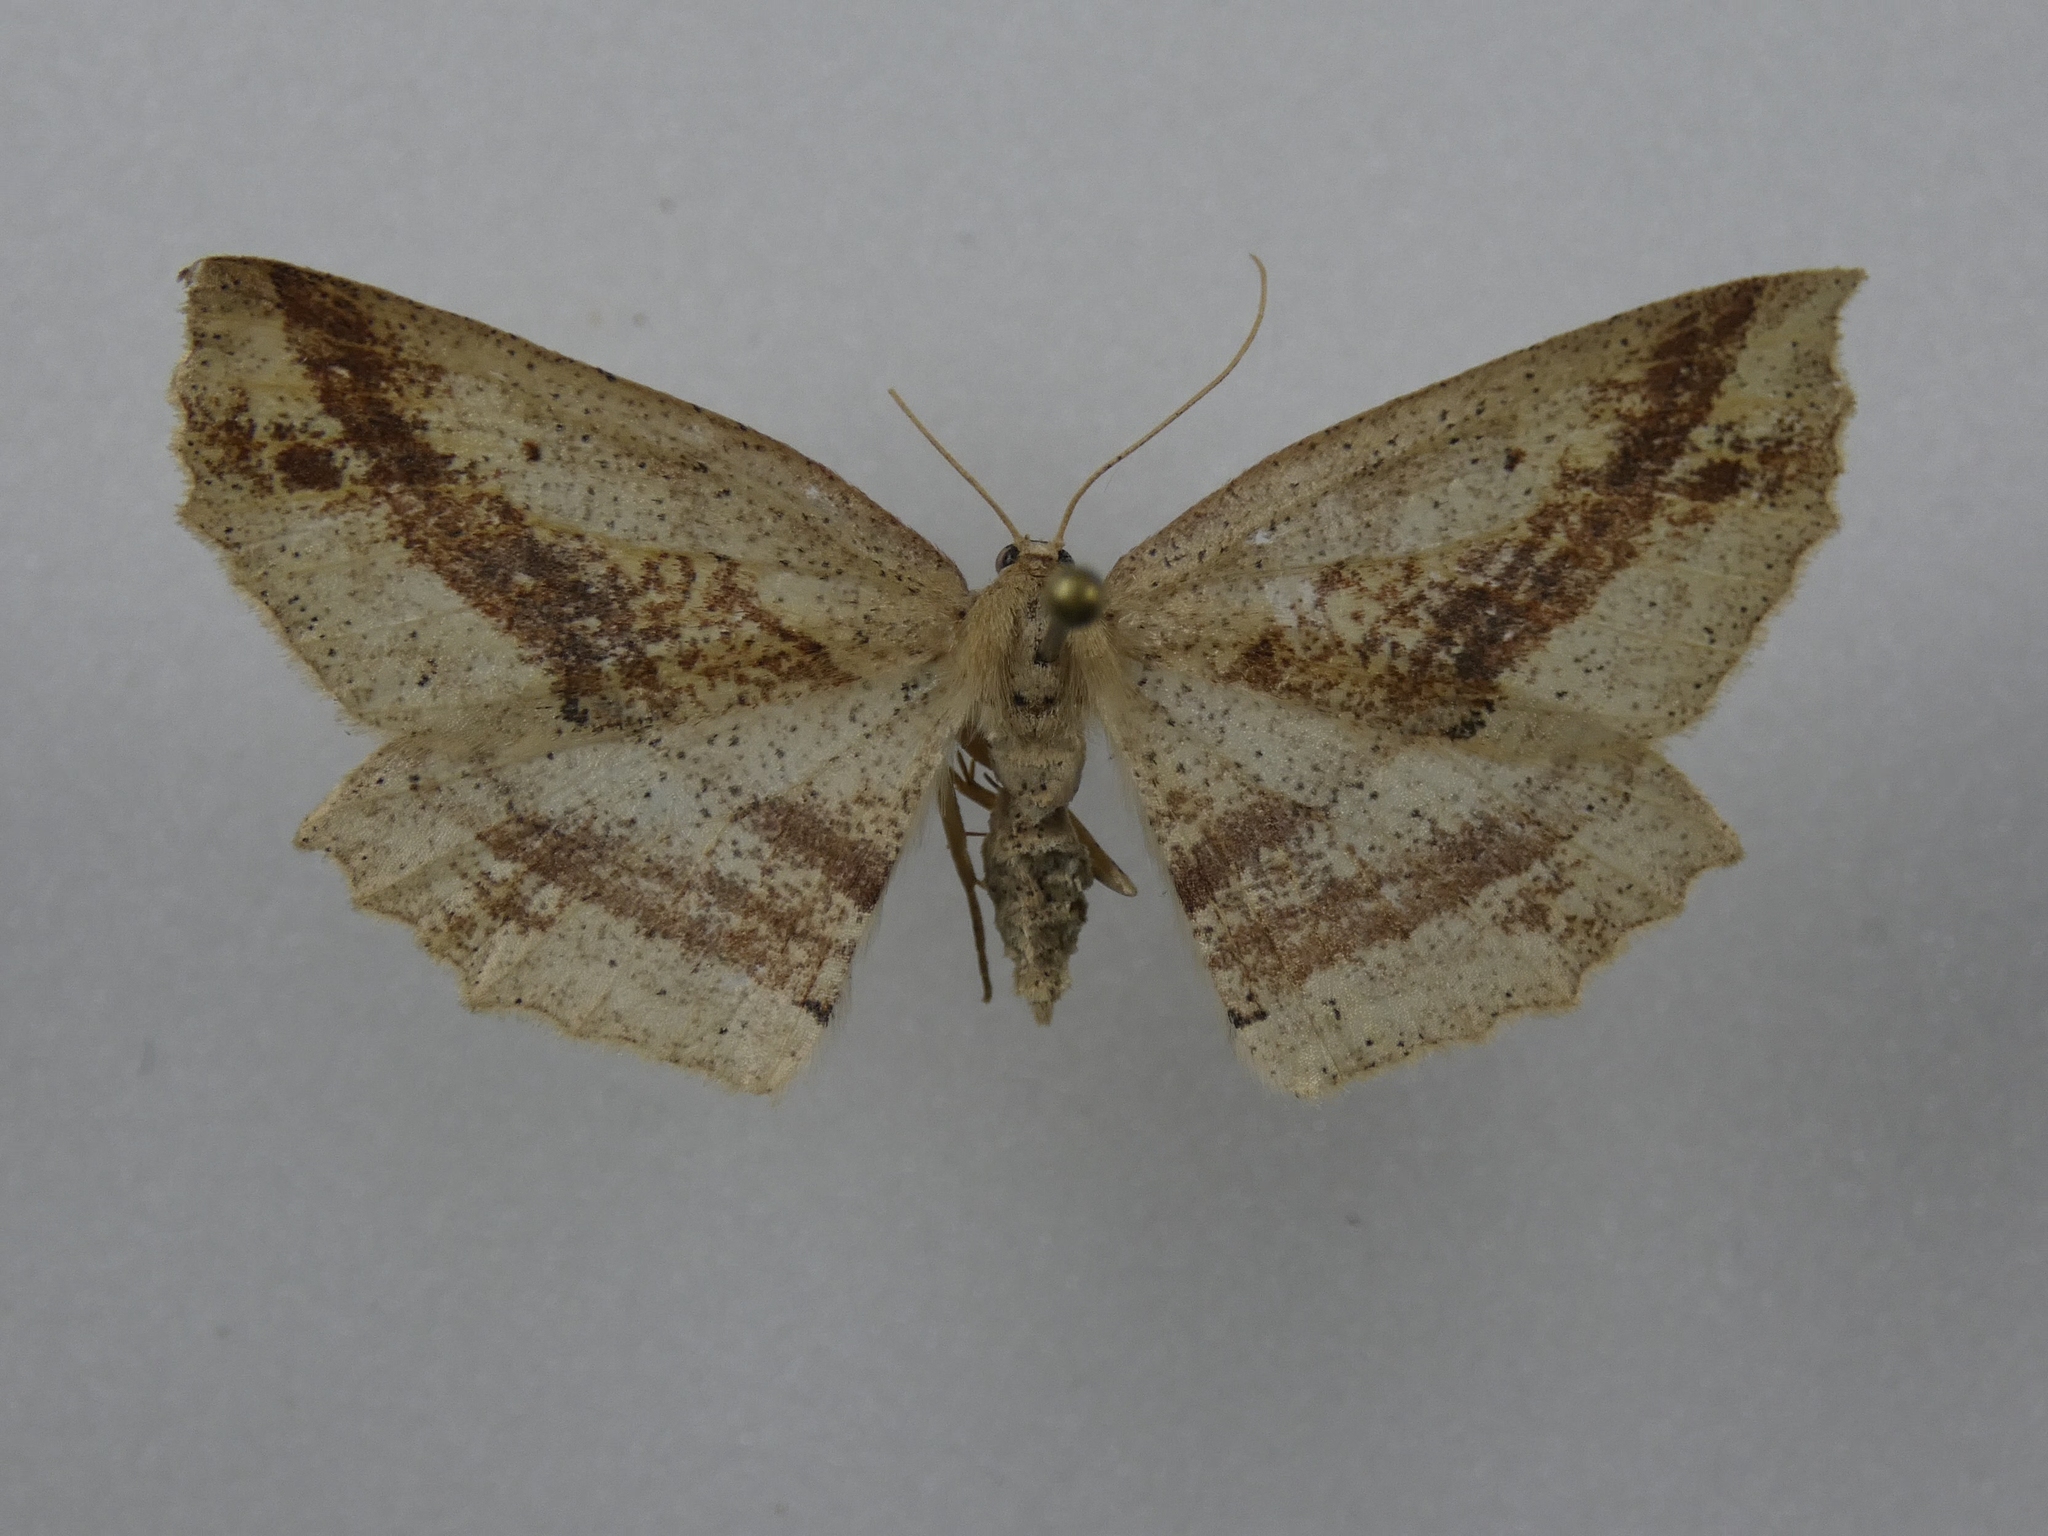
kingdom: Animalia
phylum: Arthropoda
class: Insecta
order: Lepidoptera
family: Geometridae
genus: Xyridacma
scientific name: Xyridacma veronicae
